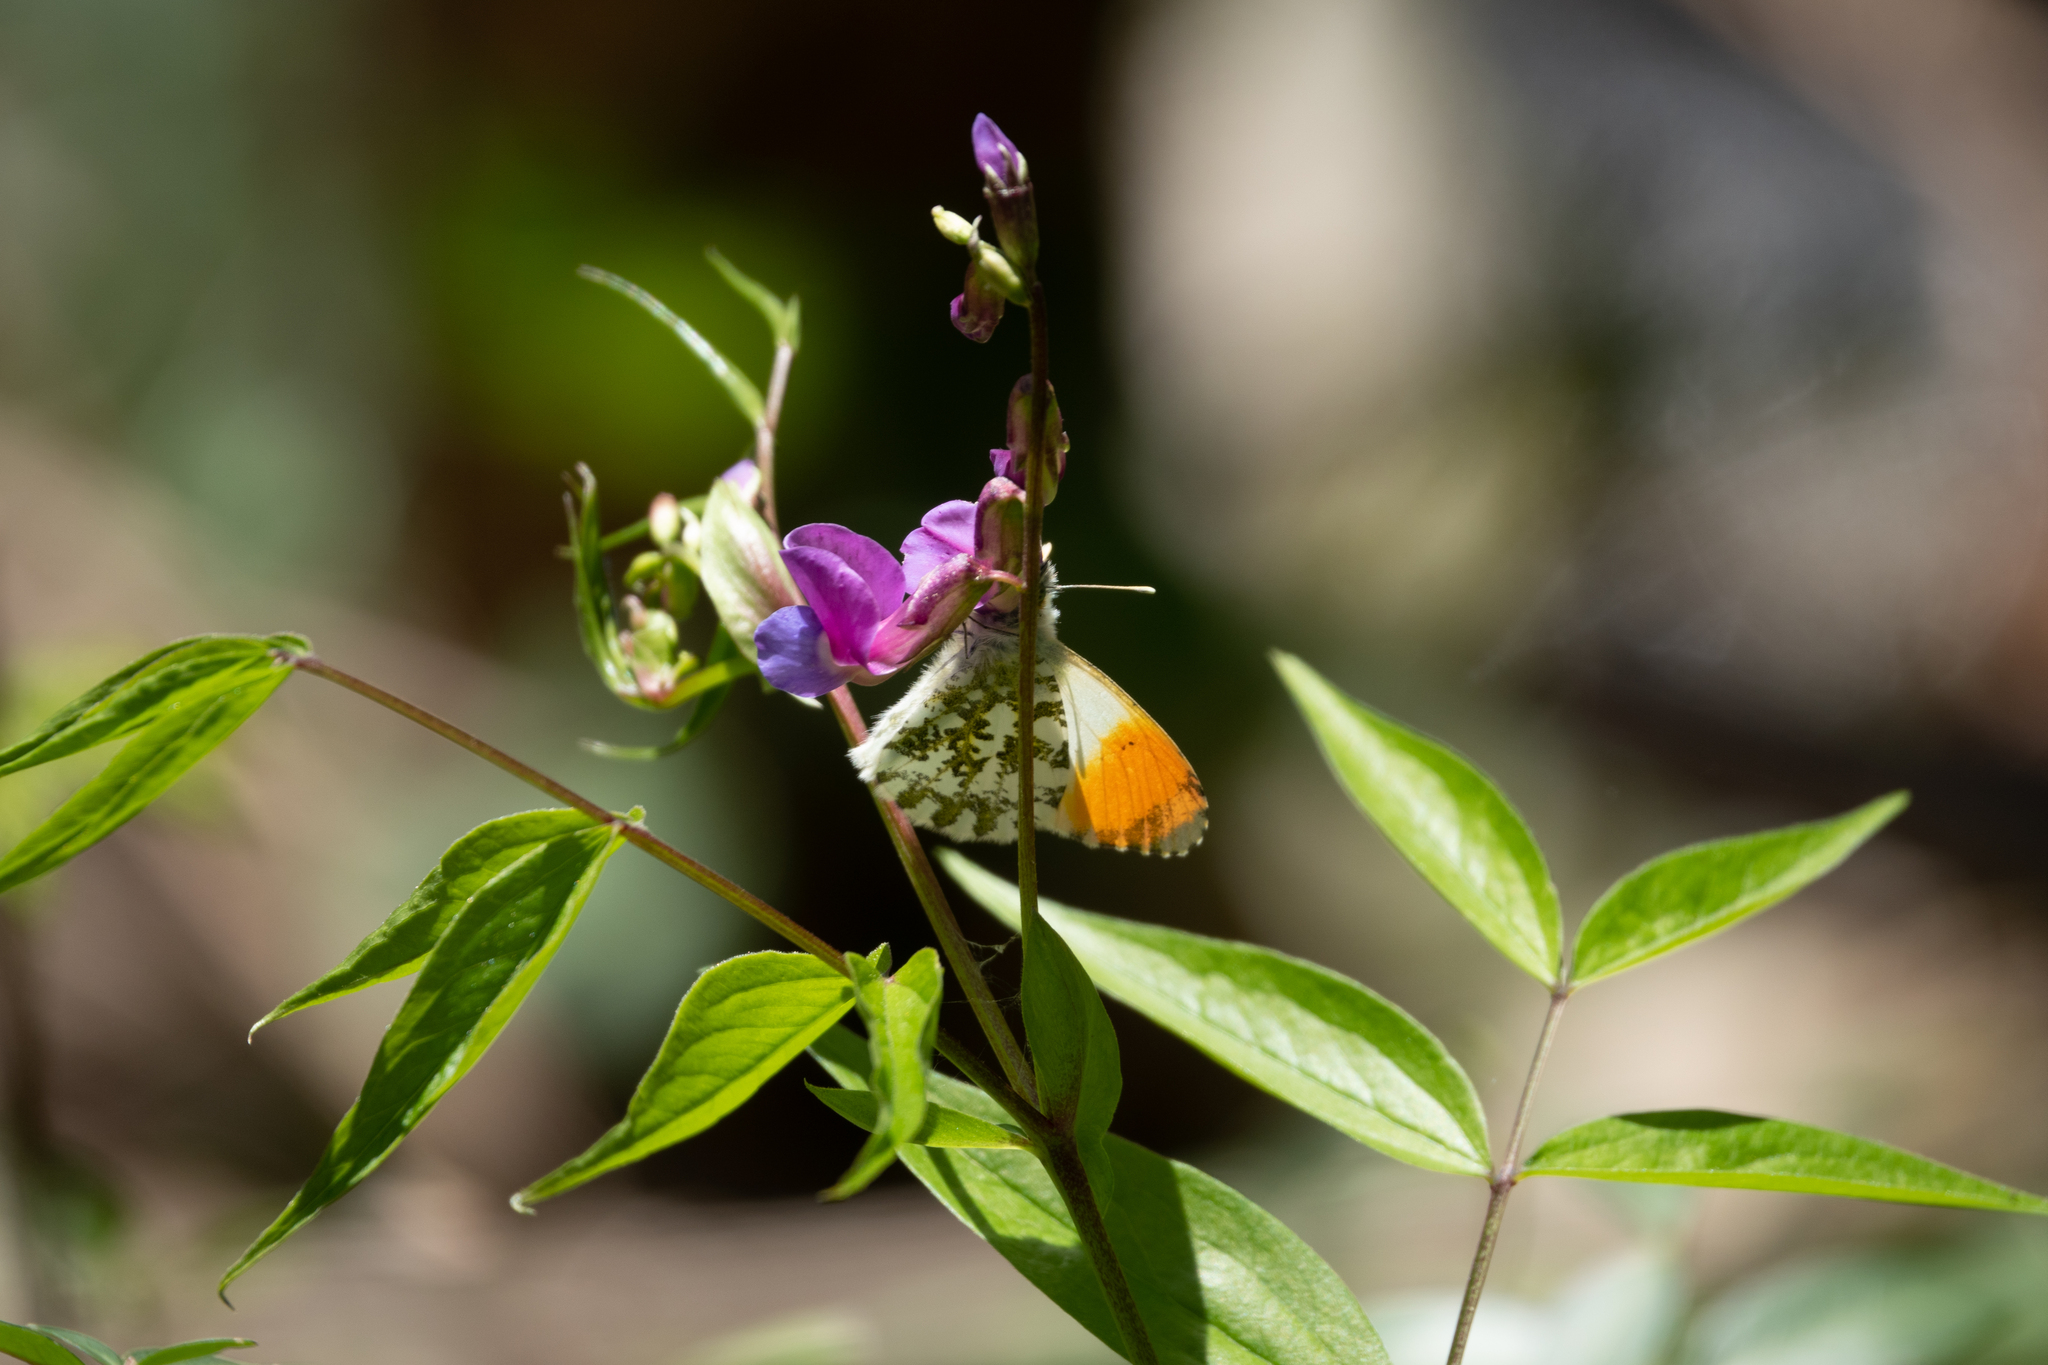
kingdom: Animalia
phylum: Arthropoda
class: Insecta
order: Lepidoptera
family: Pieridae
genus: Anthocharis
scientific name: Anthocharis cardamines
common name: Orange-tip
